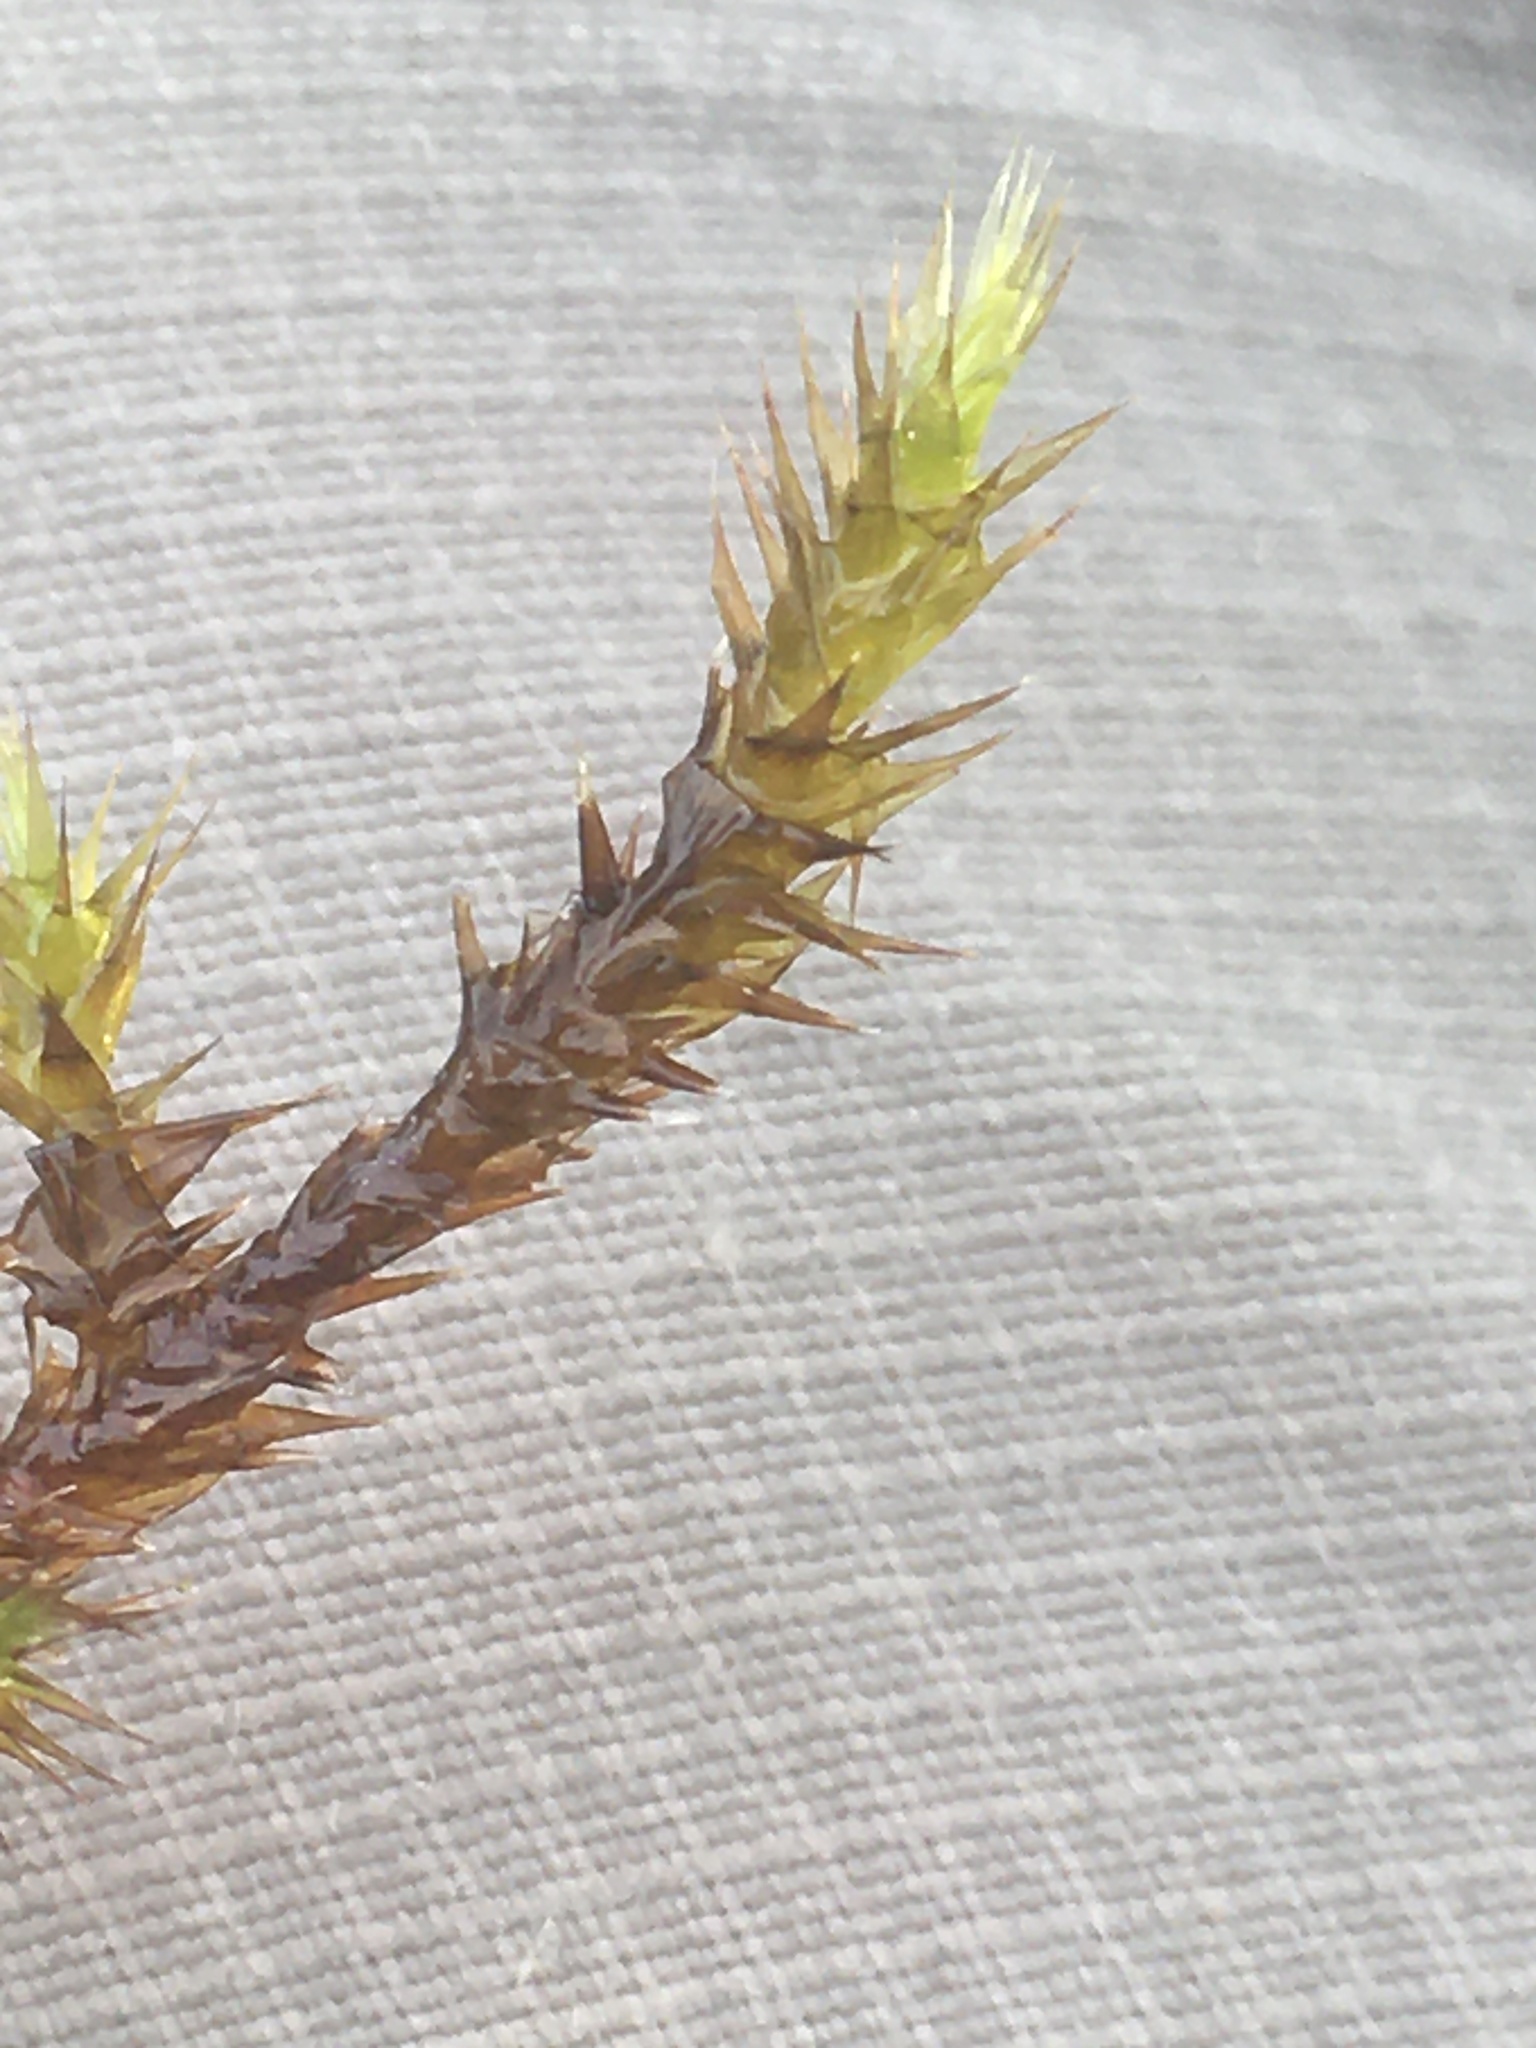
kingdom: Plantae
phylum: Bryophyta
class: Bryopsida
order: Hypnales
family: Amblystegiaceae
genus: Campylium
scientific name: Campylium stellatum
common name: Yellow starry fen moss
